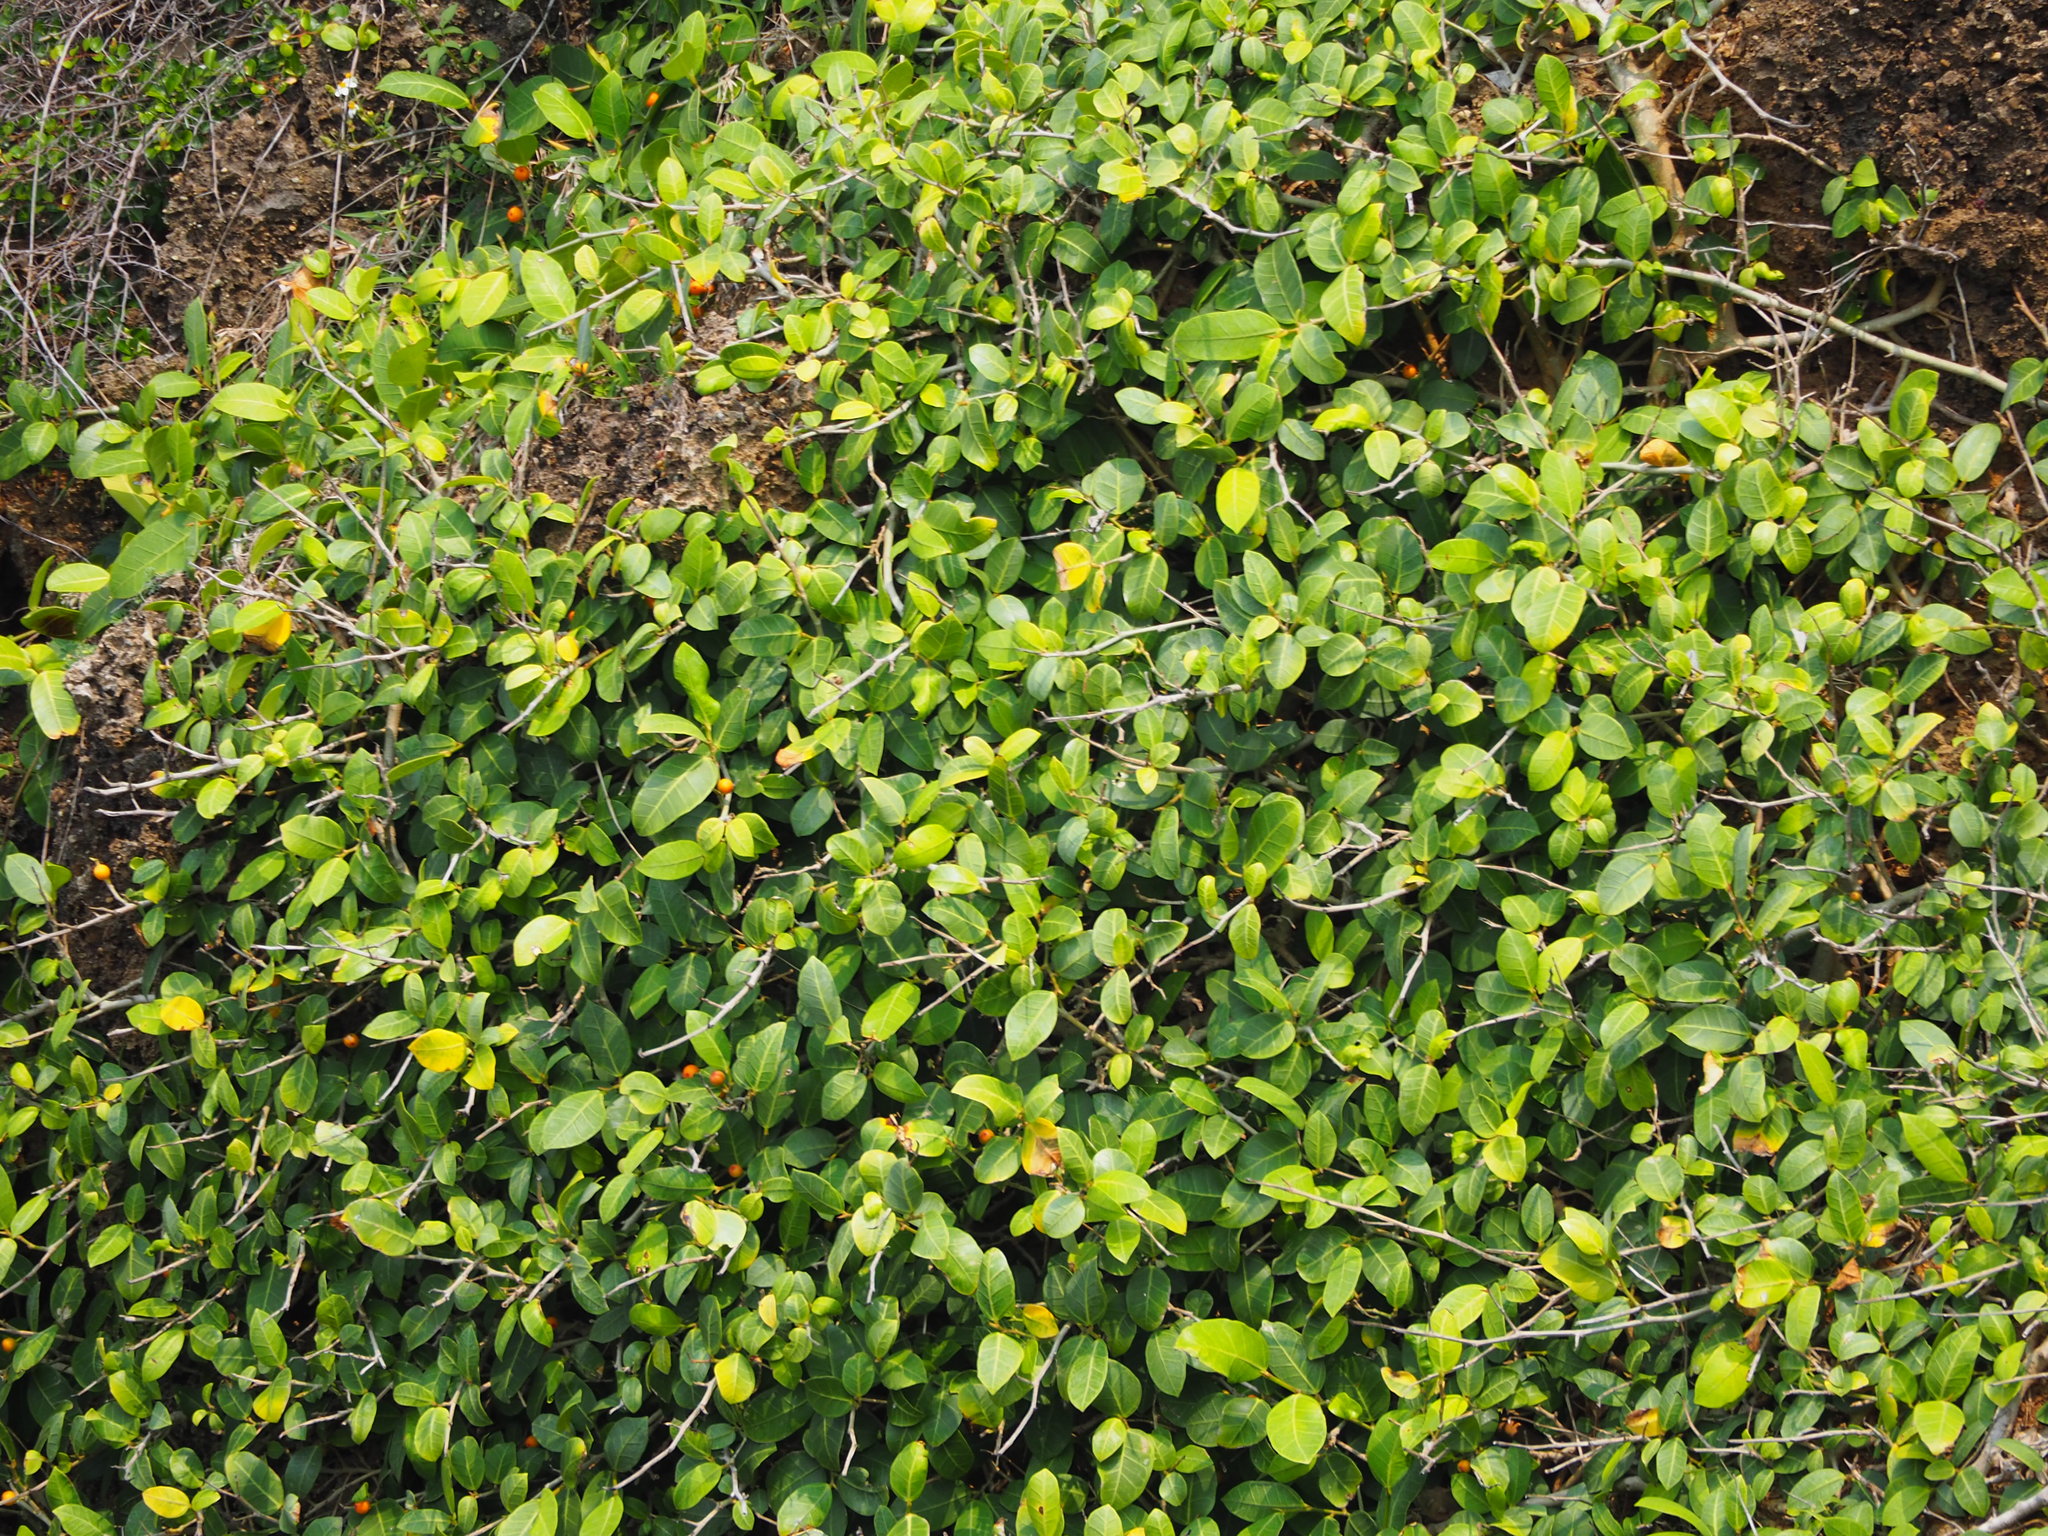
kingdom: Plantae
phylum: Tracheophyta
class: Magnoliopsida
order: Rosales
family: Moraceae
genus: Ficus
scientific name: Ficus tinctoria
